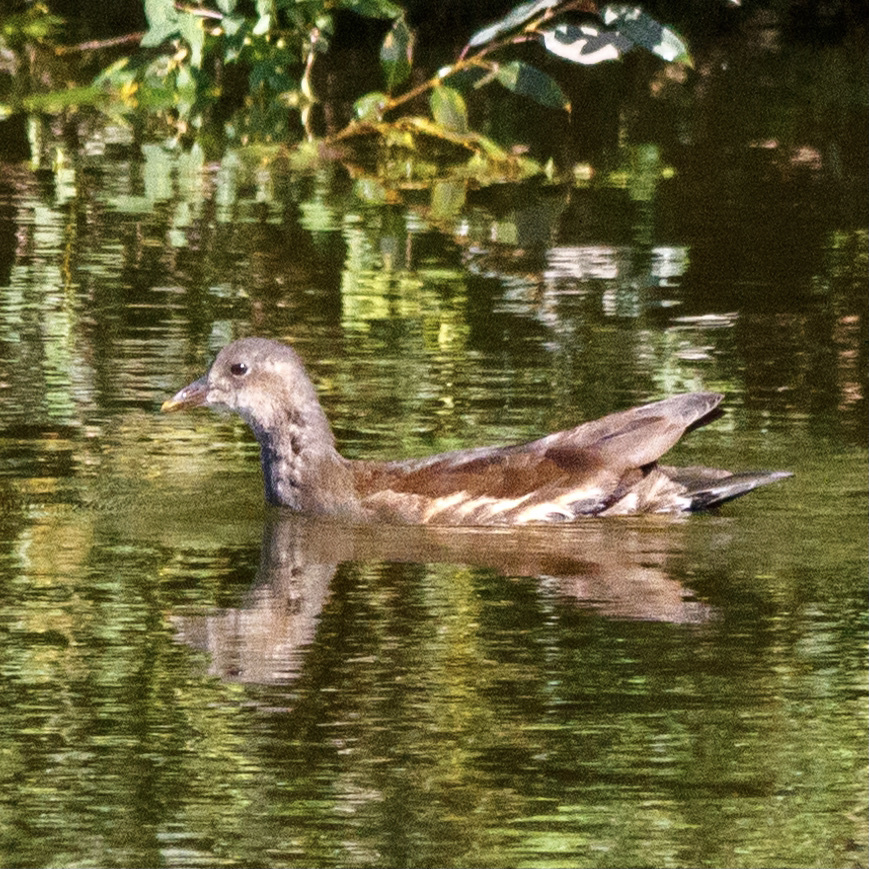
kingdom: Animalia
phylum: Chordata
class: Aves
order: Gruiformes
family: Rallidae
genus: Gallinula
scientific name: Gallinula chloropus
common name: Common moorhen
